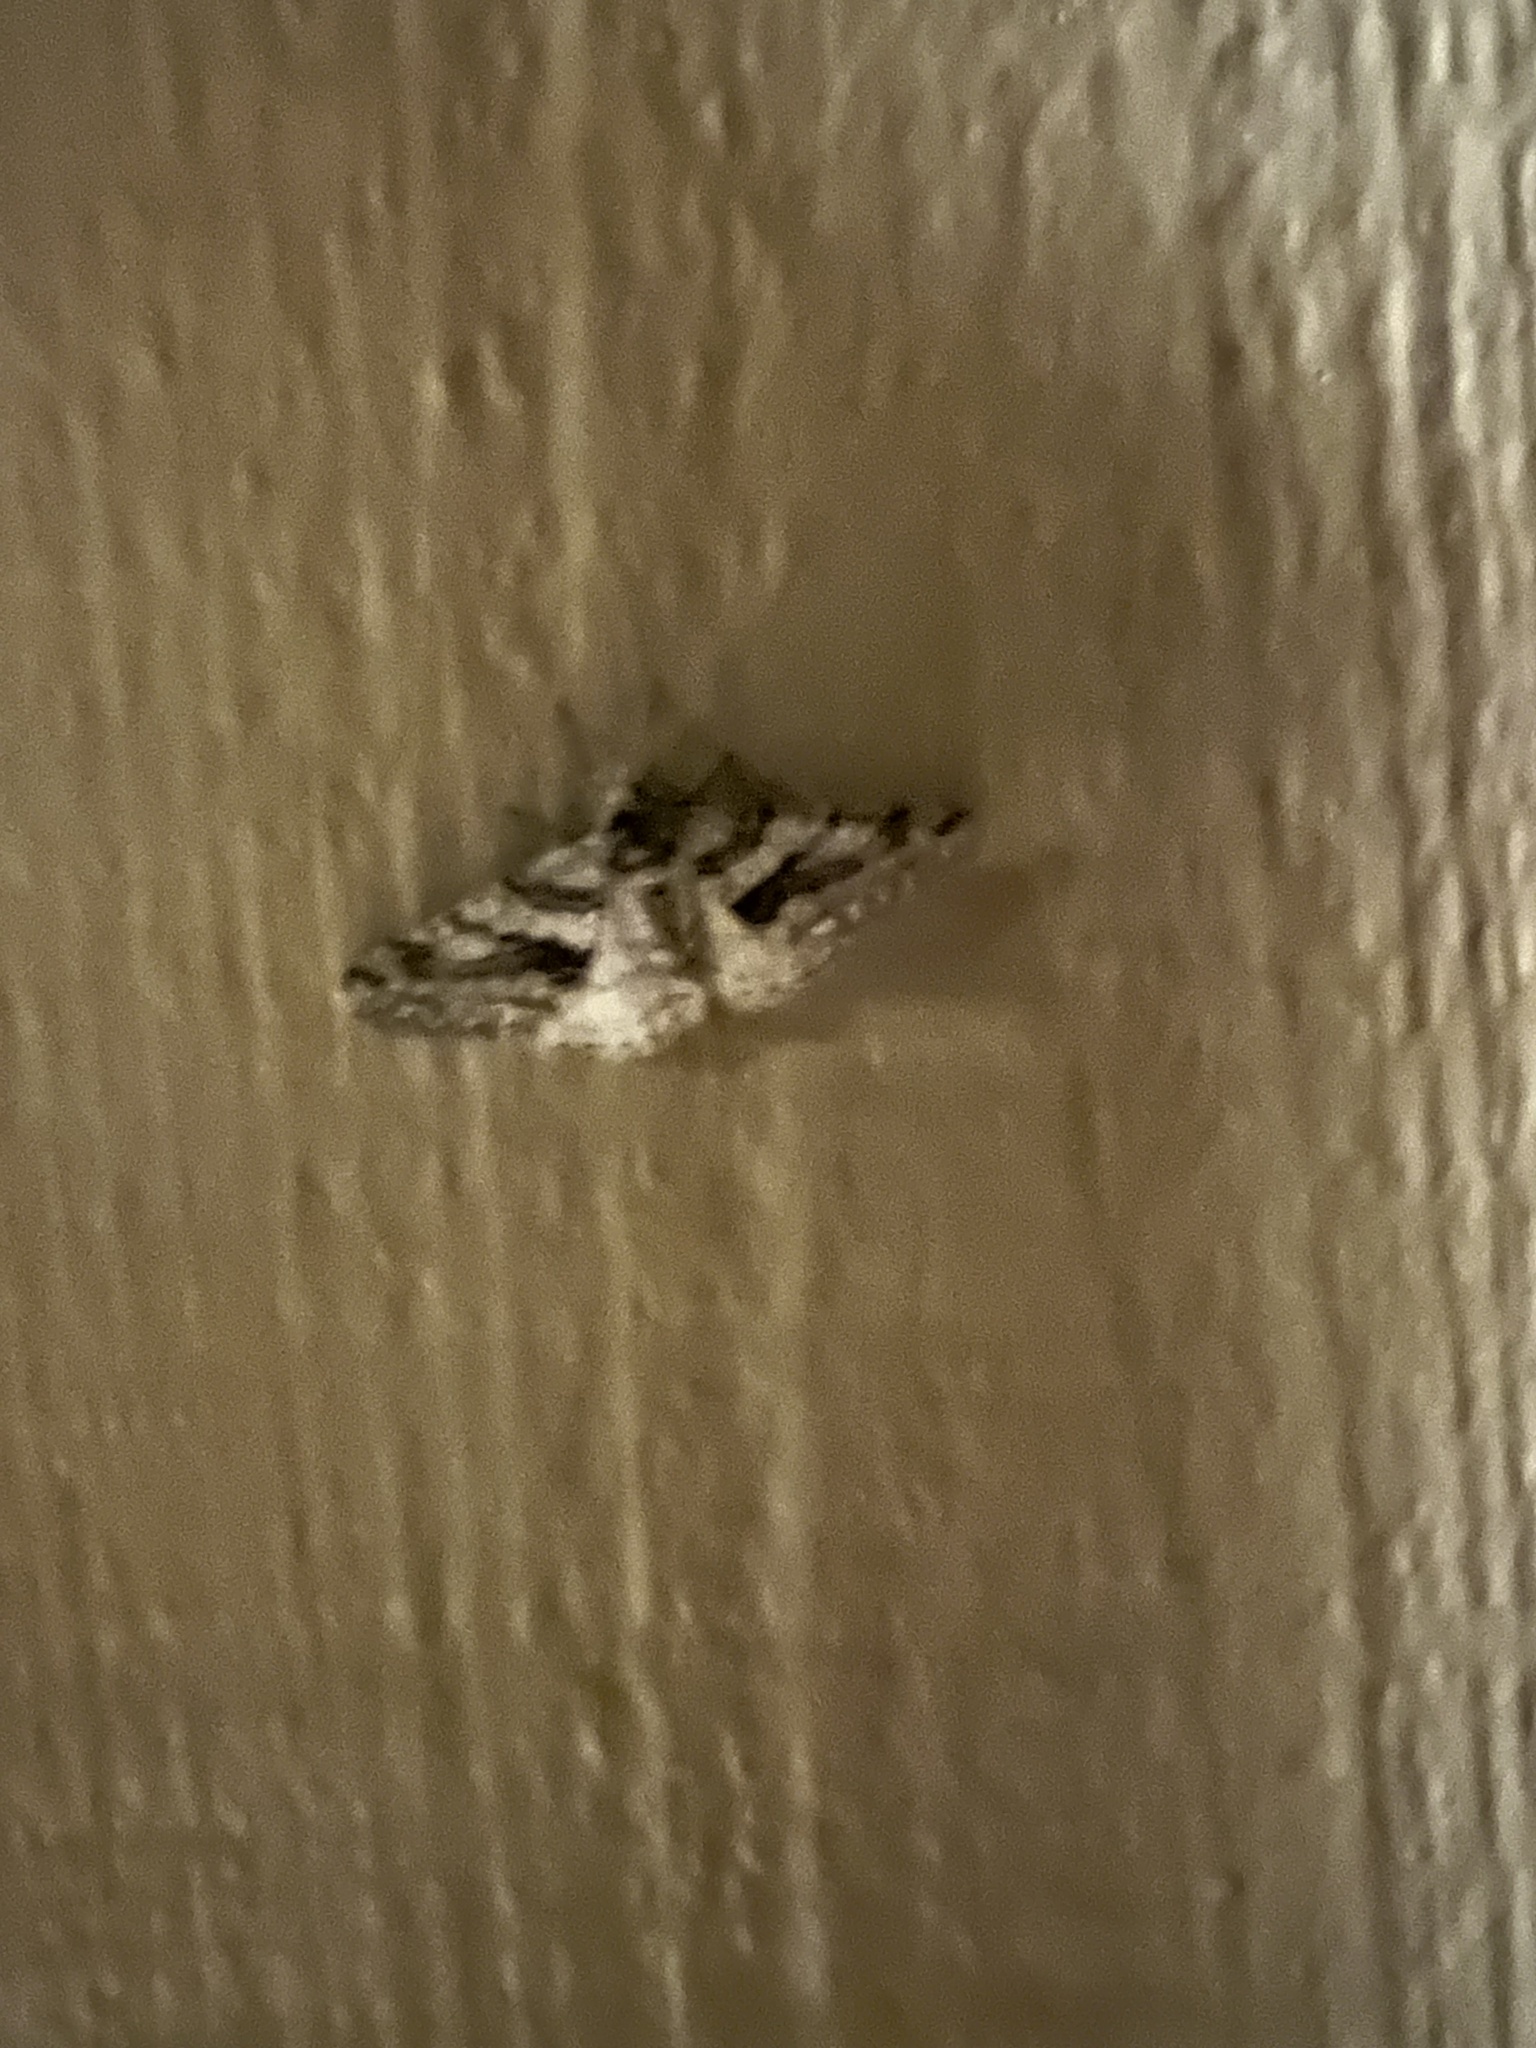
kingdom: Animalia
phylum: Arthropoda
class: Insecta
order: Lepidoptera
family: Geometridae
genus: Phigalia
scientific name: Phigalia titea
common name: Spiny looper
